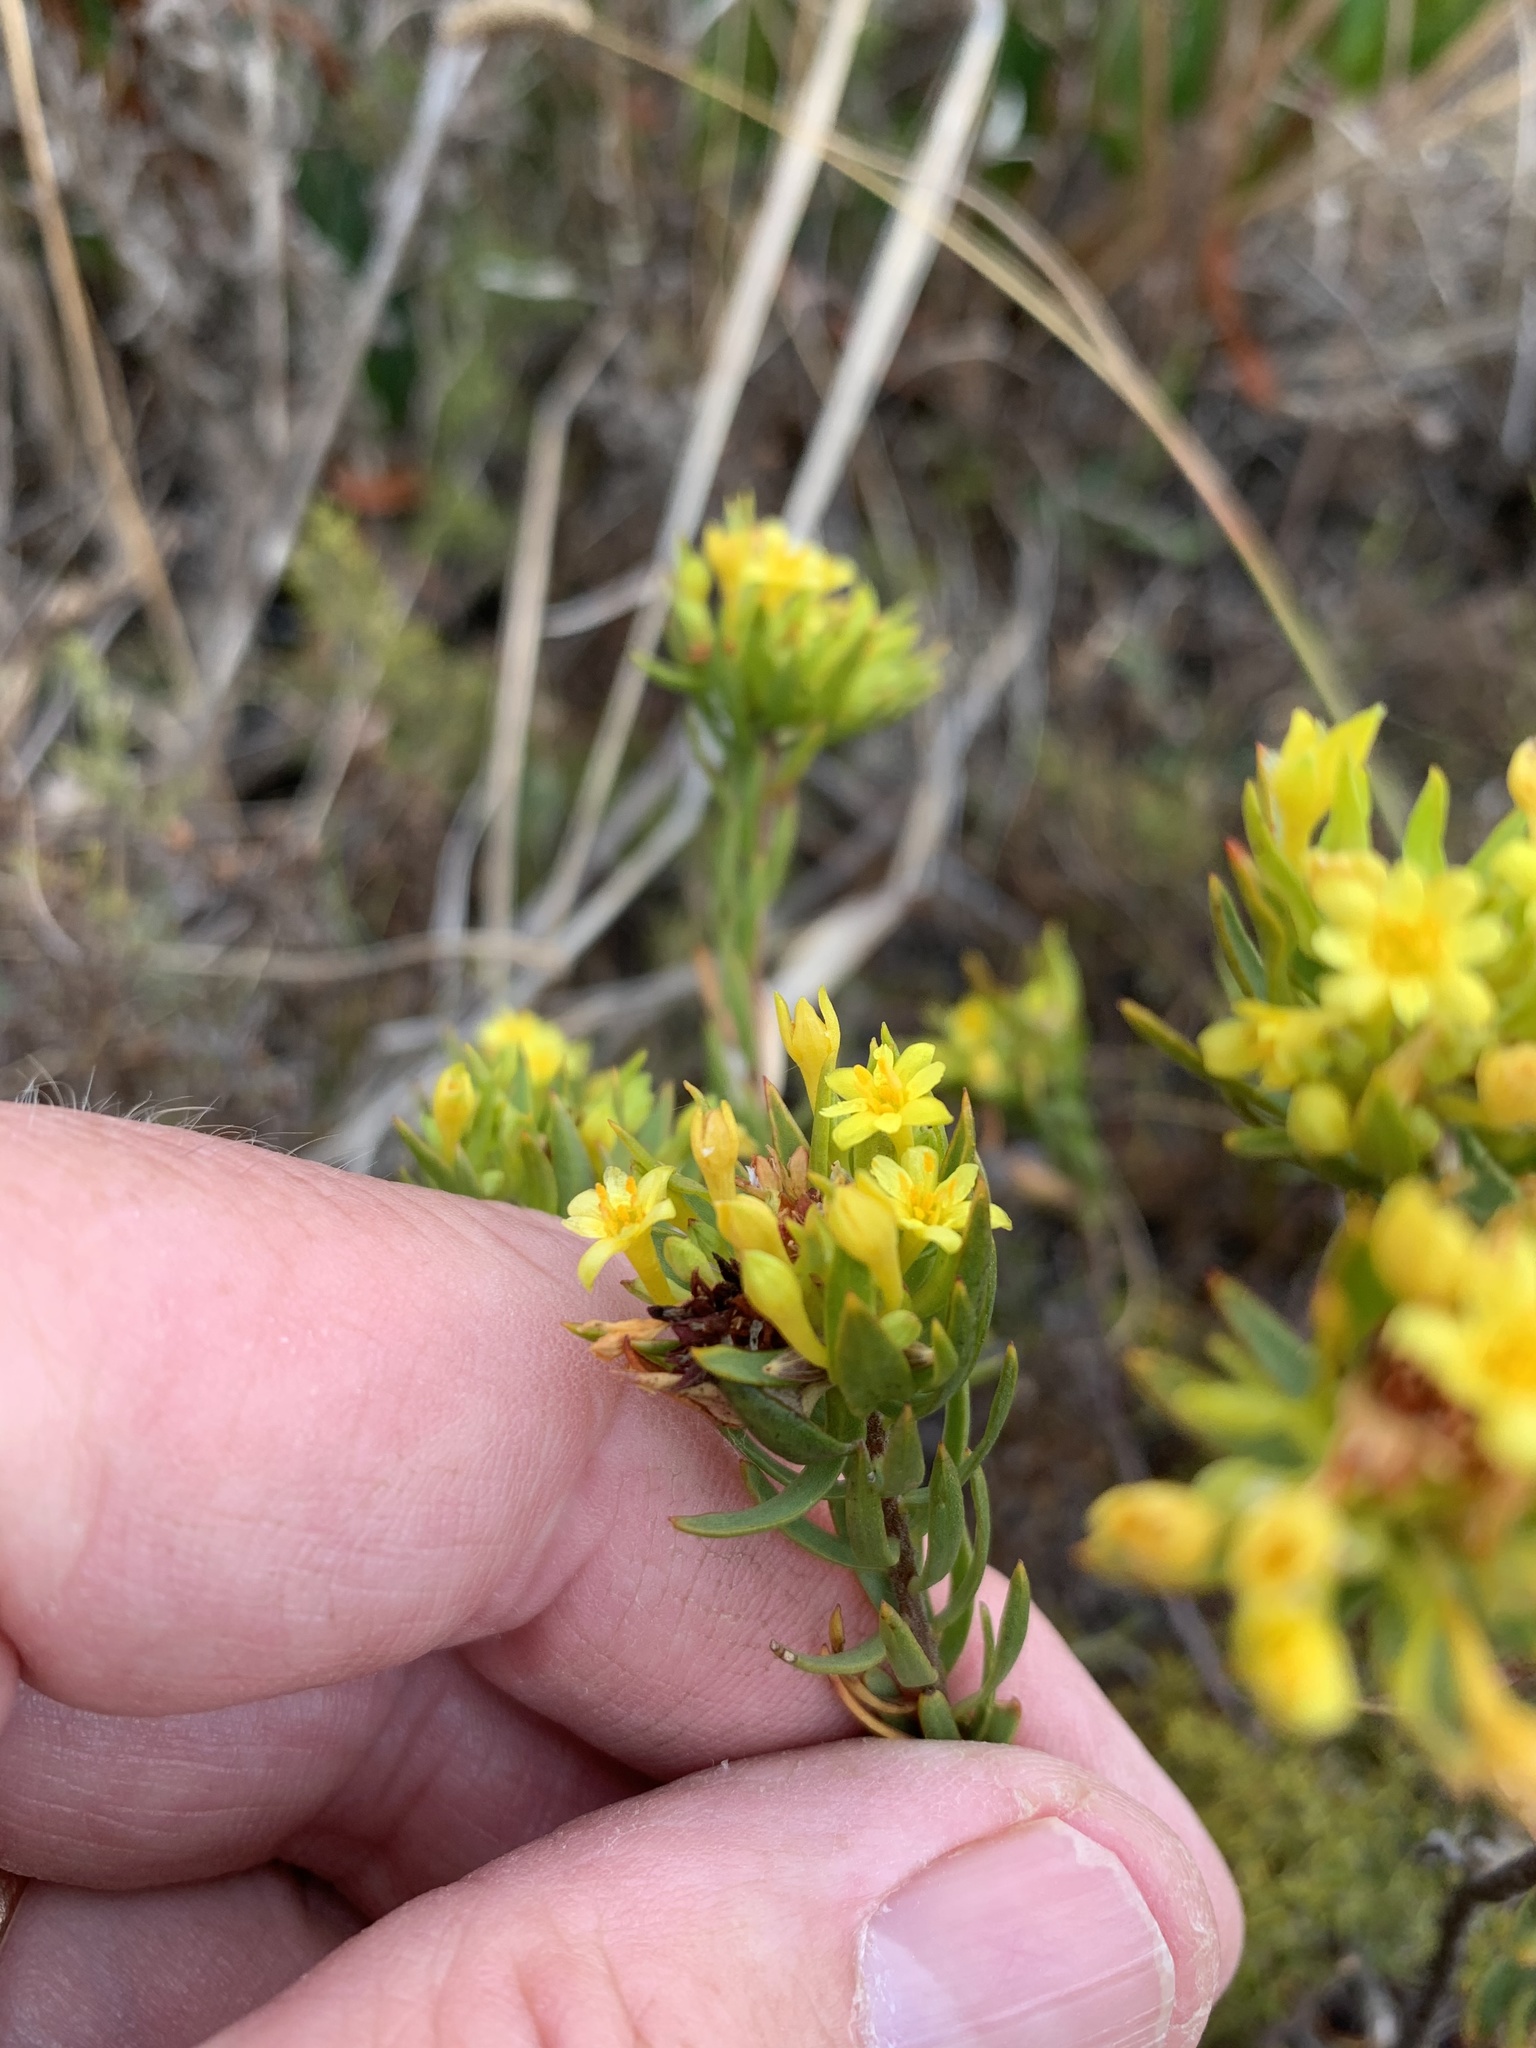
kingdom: Plantae
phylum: Tracheophyta
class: Magnoliopsida
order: Malvales
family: Thymelaeaceae
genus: Gnidia
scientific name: Gnidia juniperifolia
